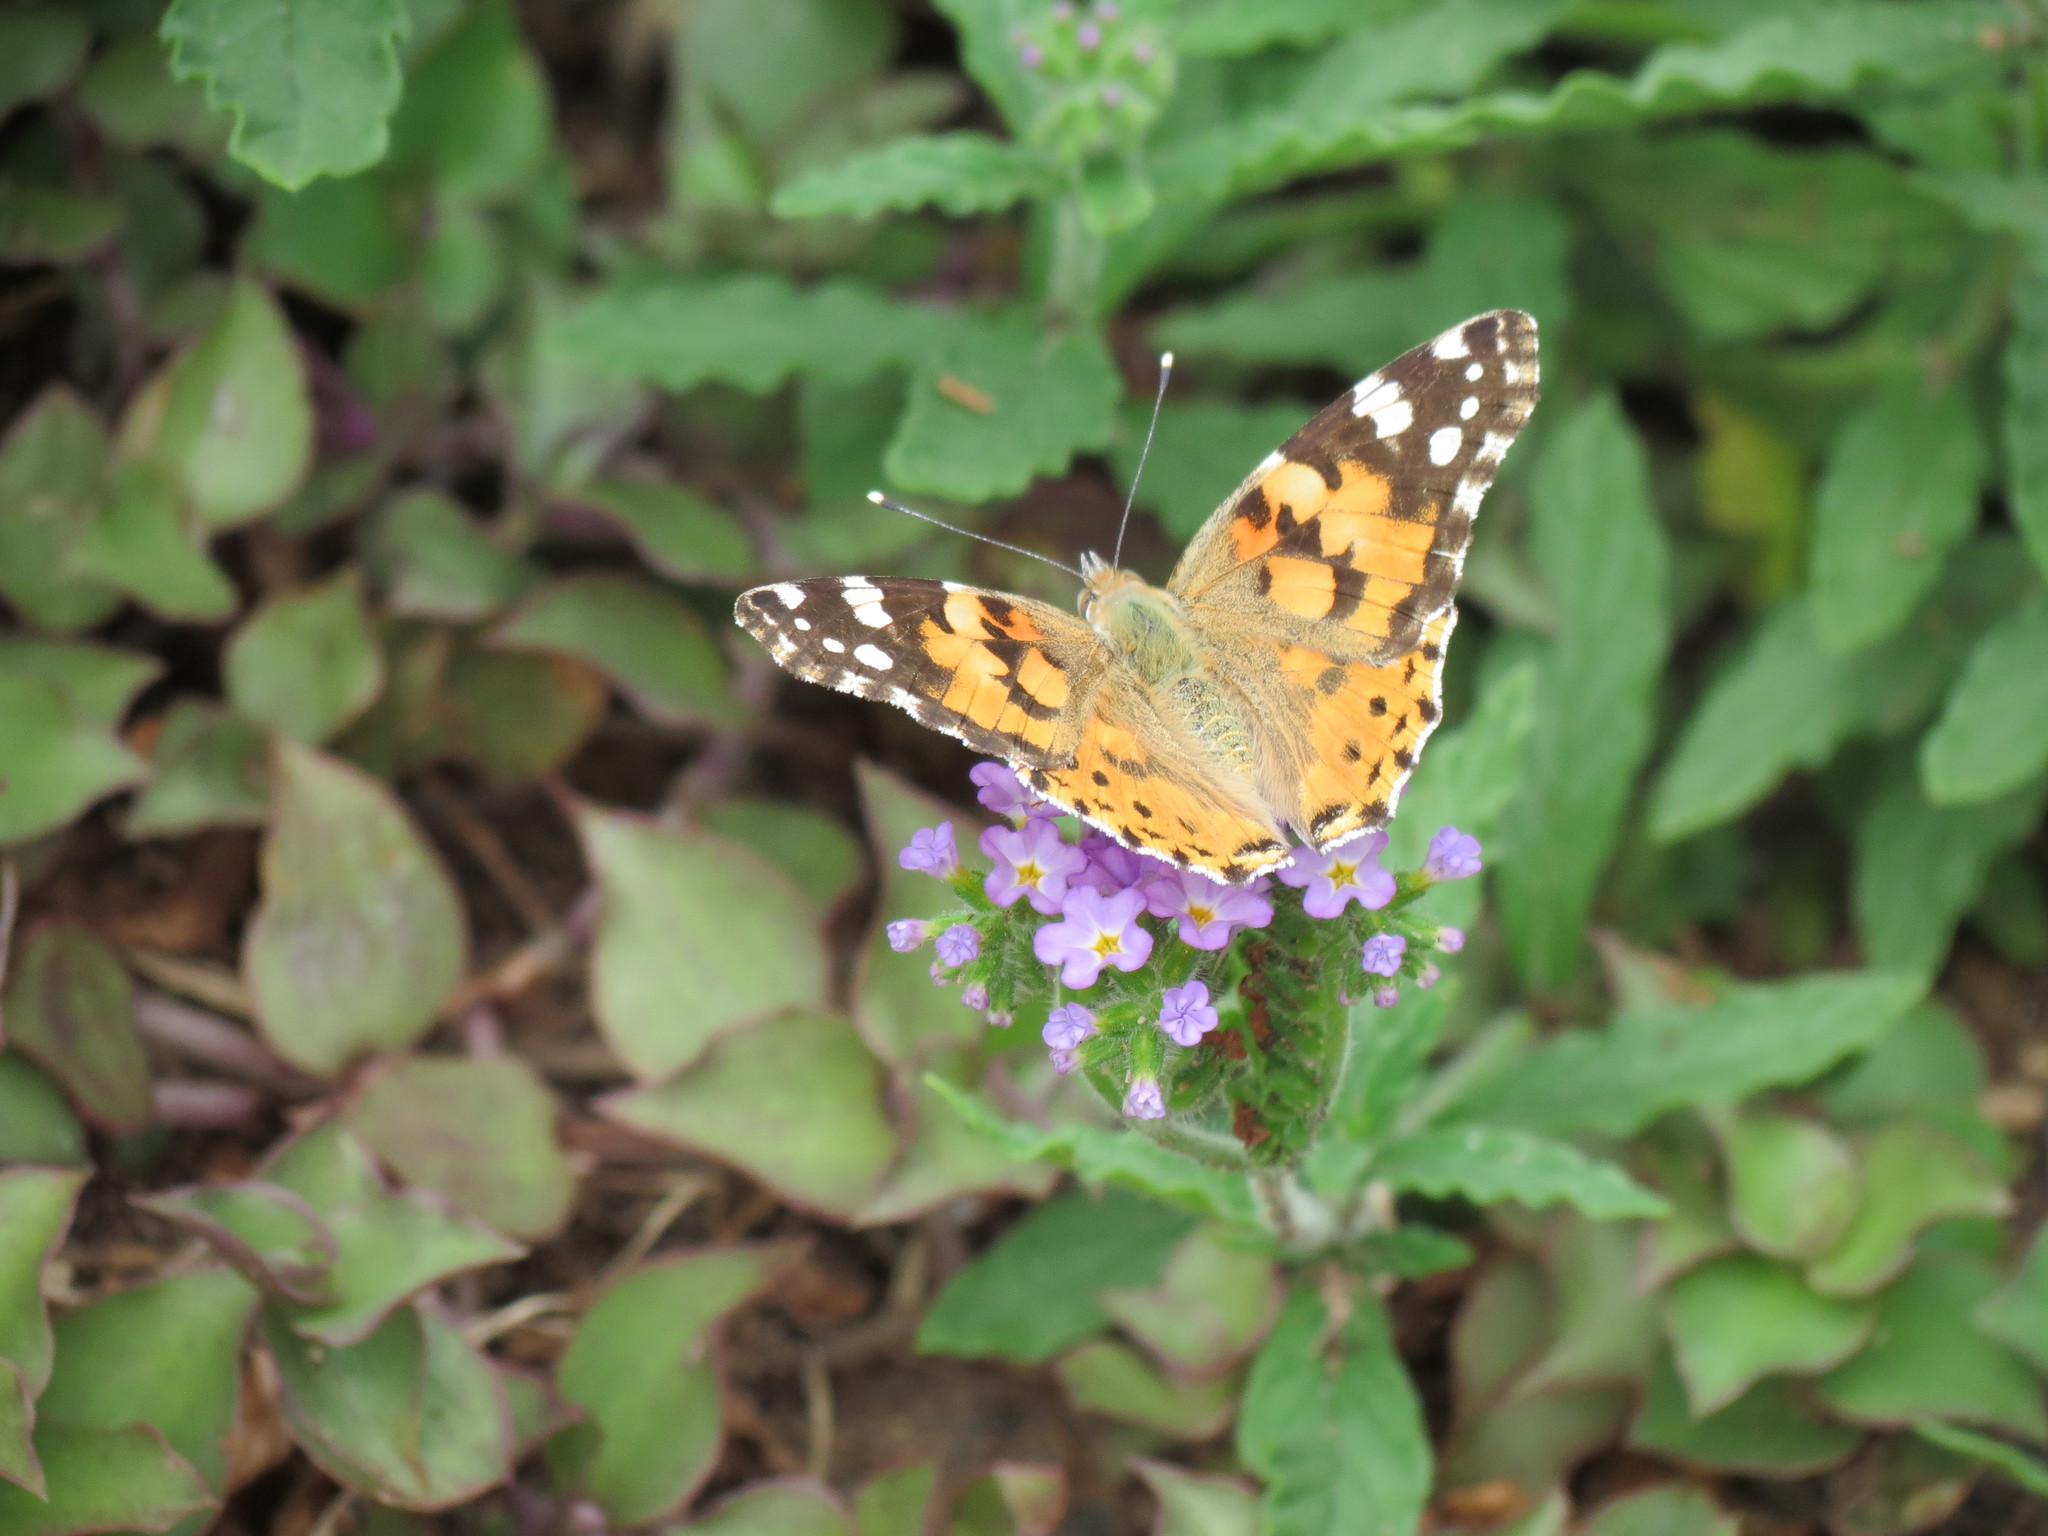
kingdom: Animalia
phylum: Arthropoda
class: Insecta
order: Lepidoptera
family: Nymphalidae
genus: Vanessa
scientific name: Vanessa cardui
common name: Painted lady
